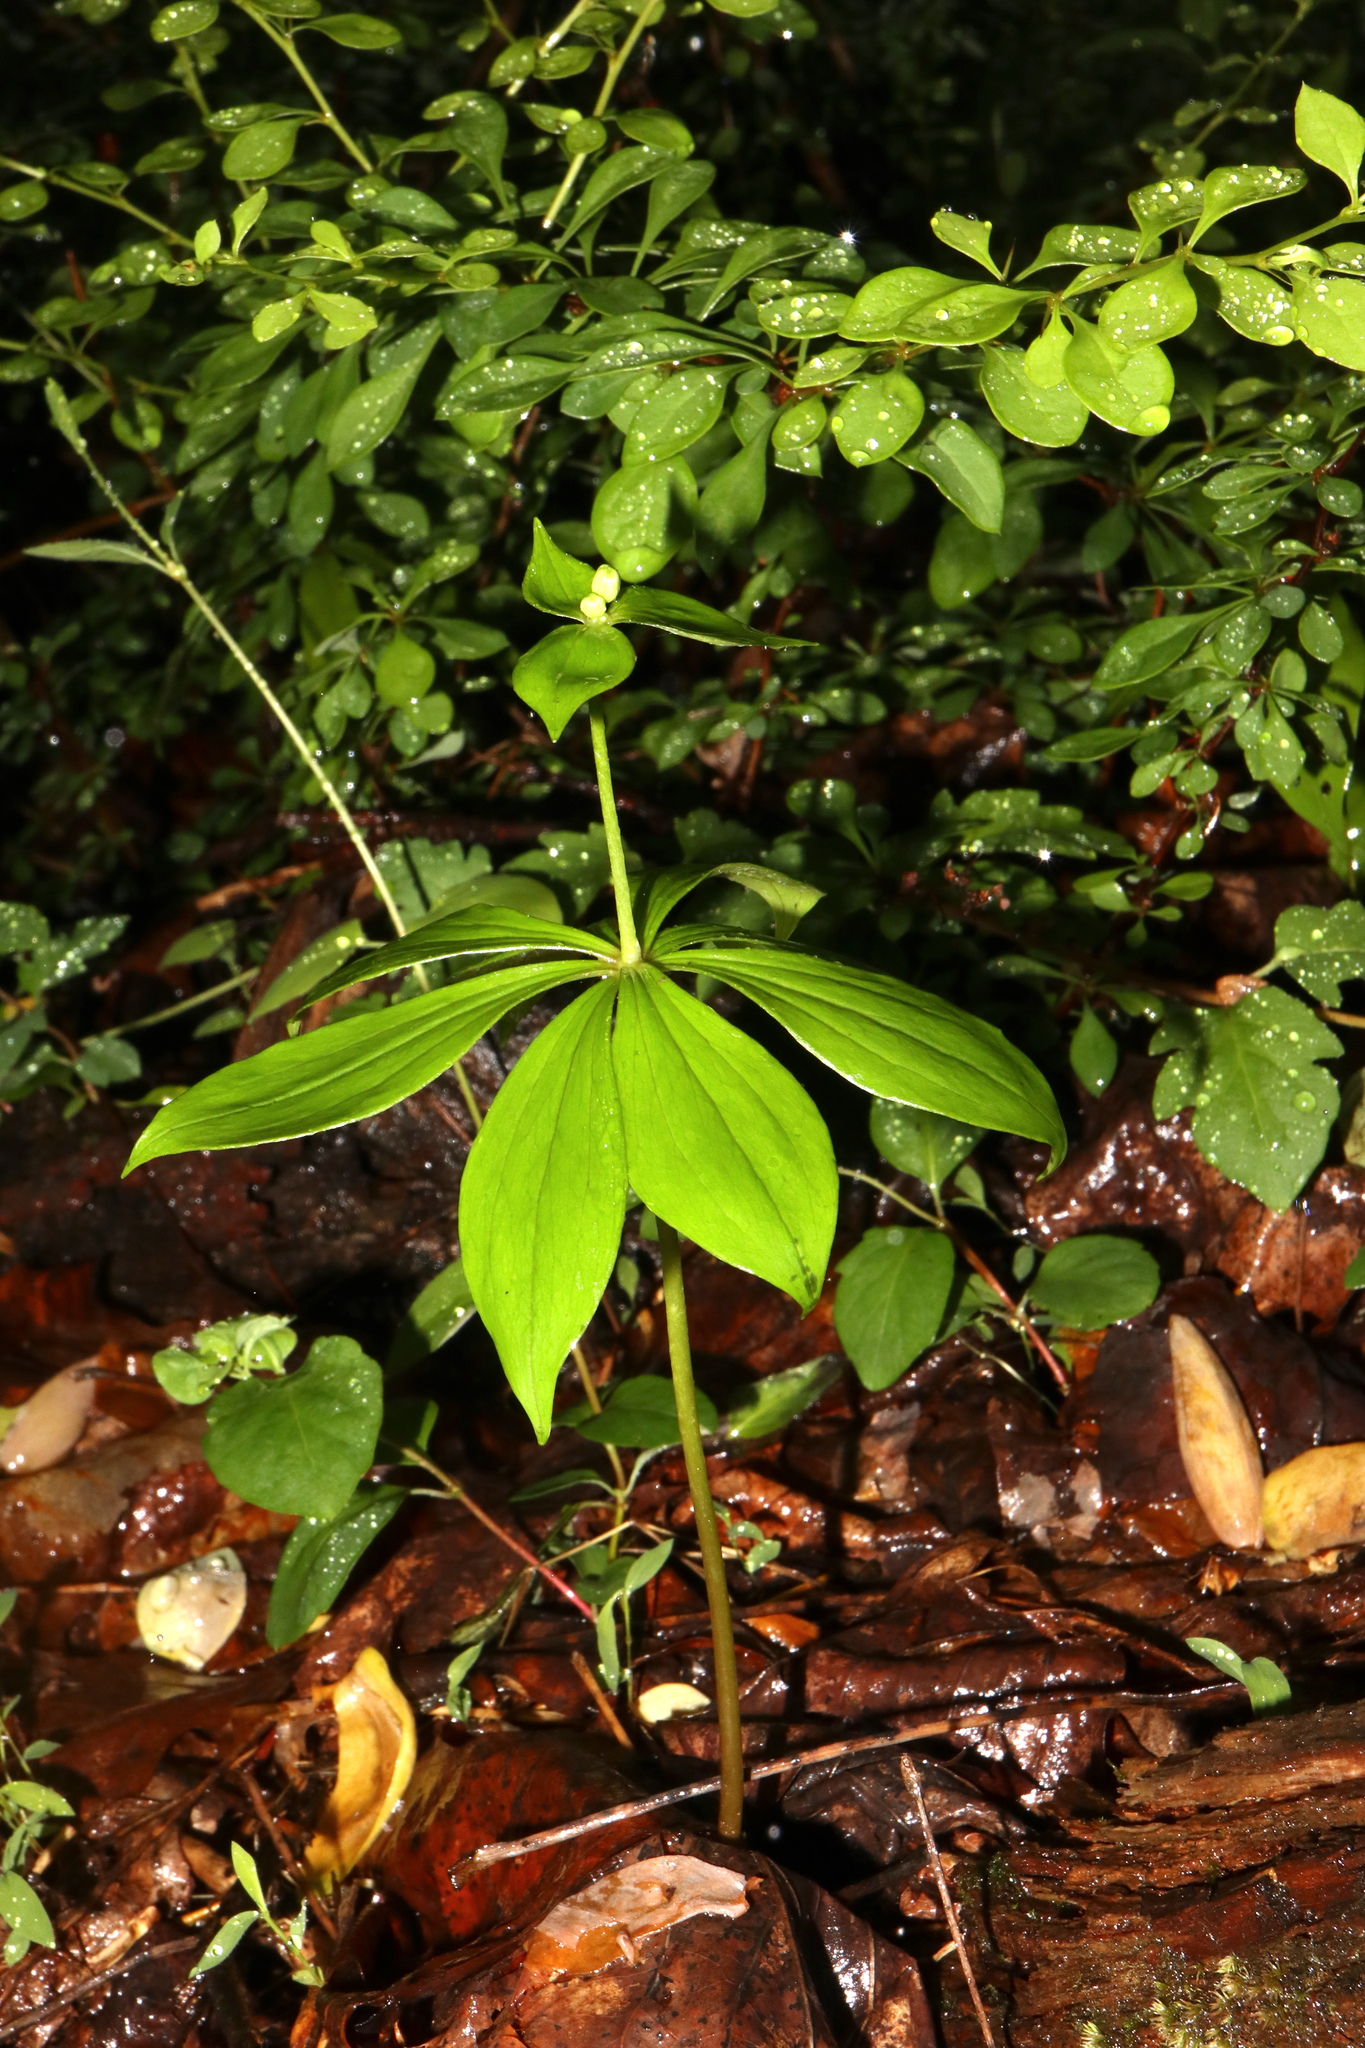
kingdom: Plantae
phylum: Tracheophyta
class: Liliopsida
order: Liliales
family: Liliaceae
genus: Medeola
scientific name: Medeola virginiana
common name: Indian cucumber-root
